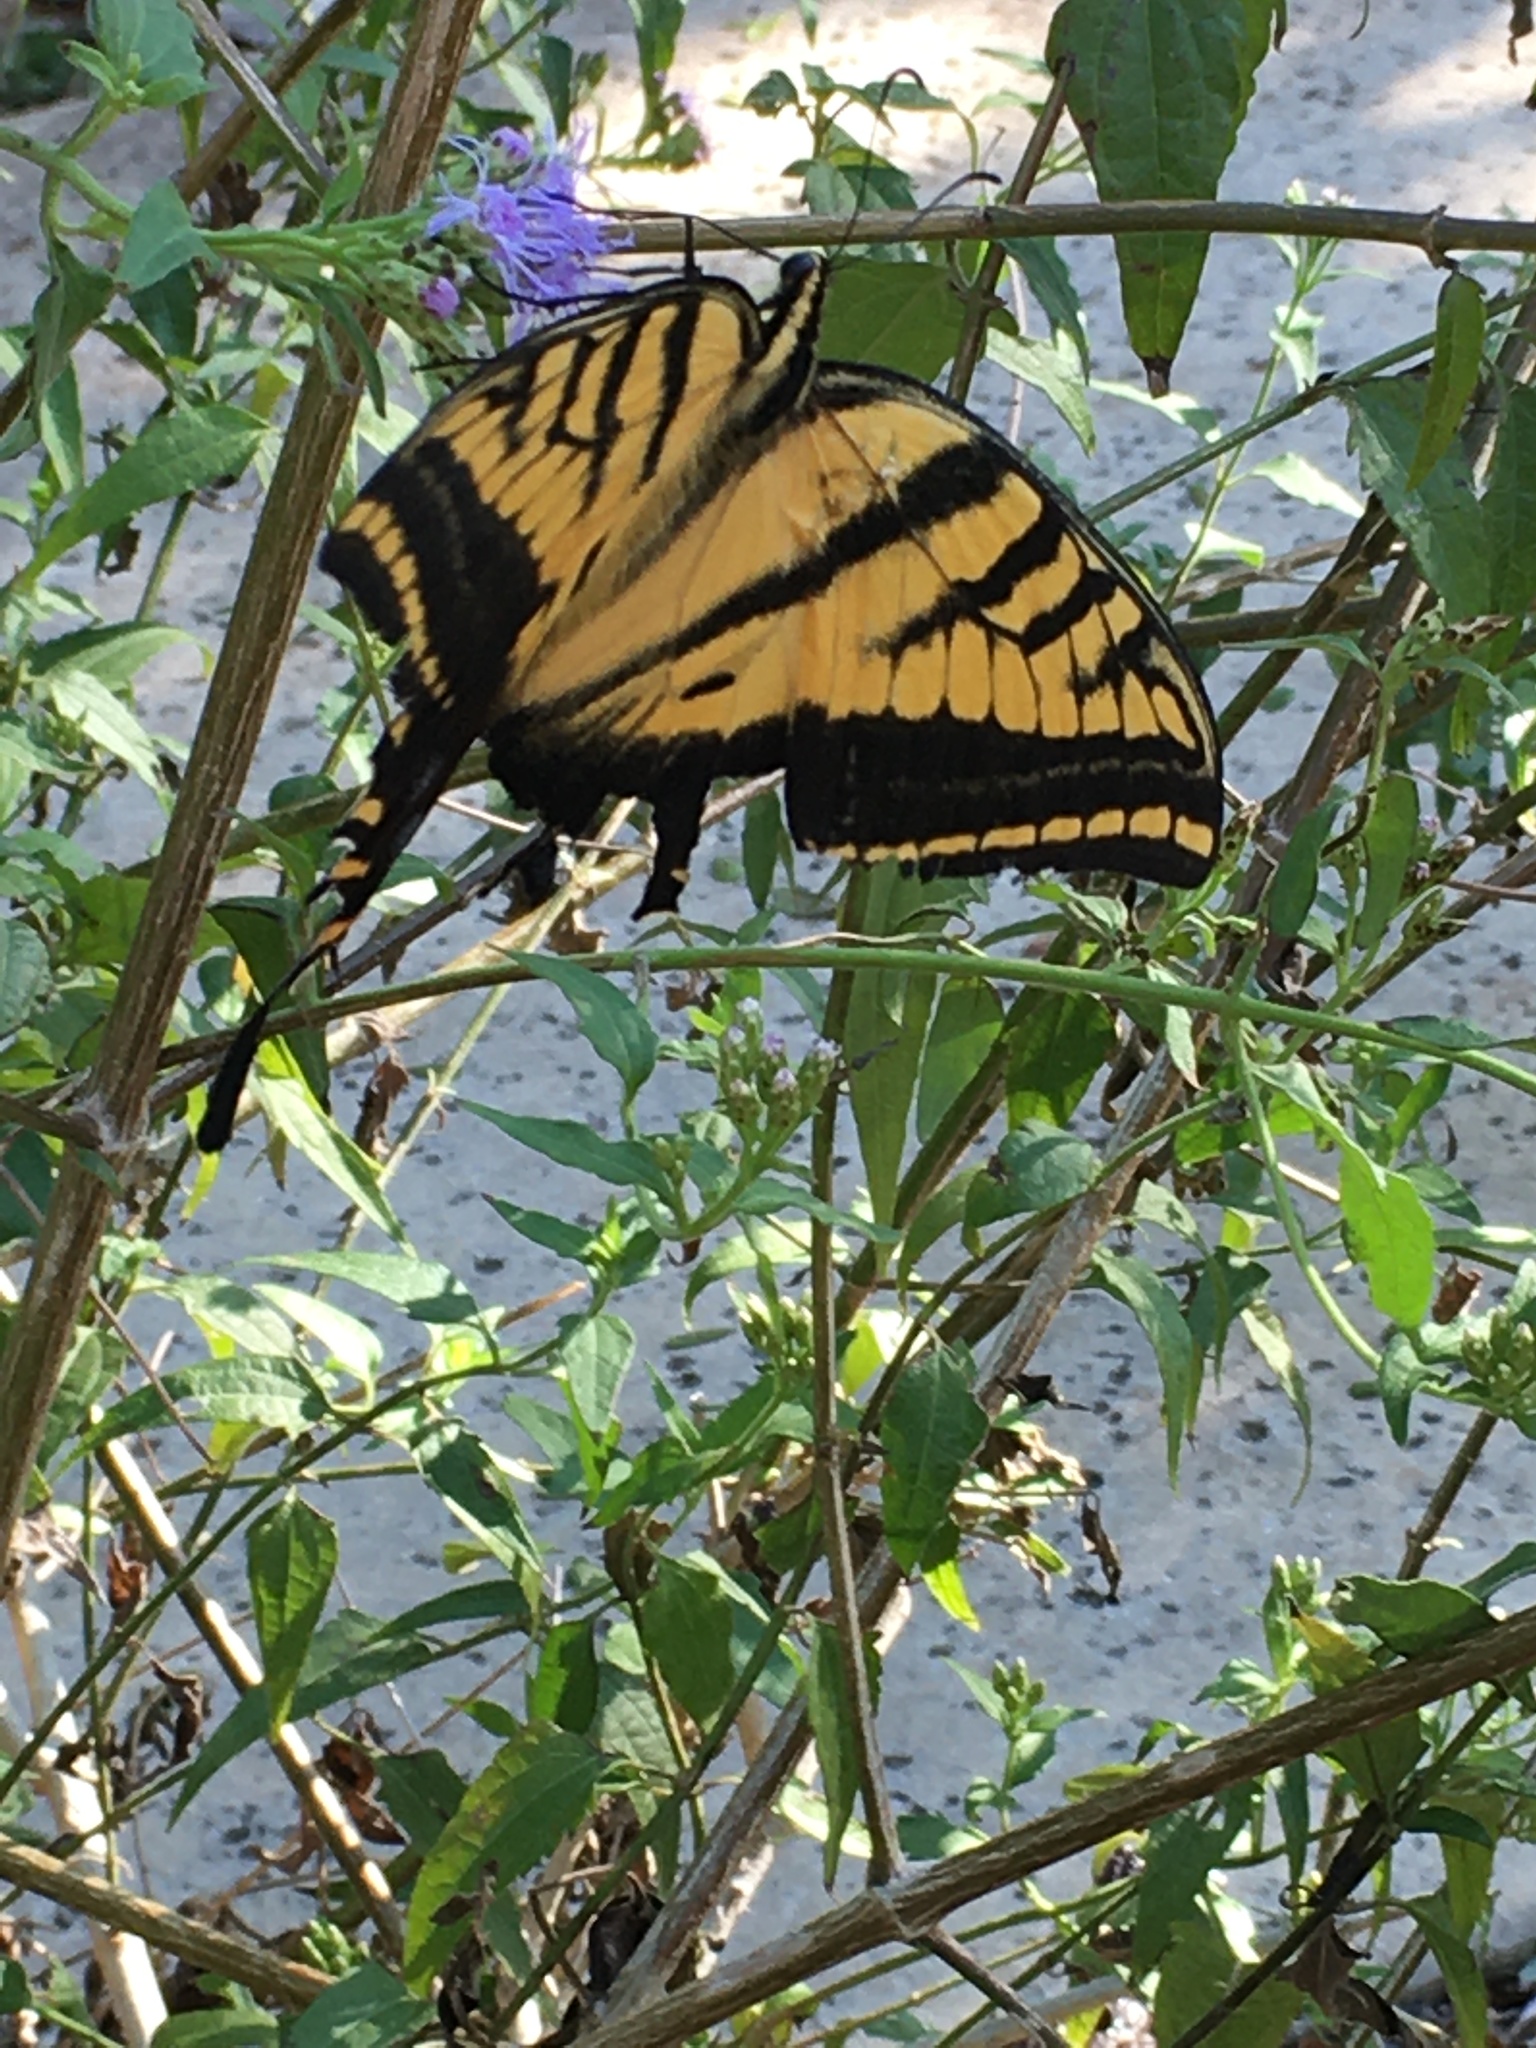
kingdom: Animalia
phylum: Arthropoda
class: Insecta
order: Lepidoptera
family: Papilionidae
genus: Papilio
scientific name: Papilio multicaudata
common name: Two-tailed tiger swallowtail
